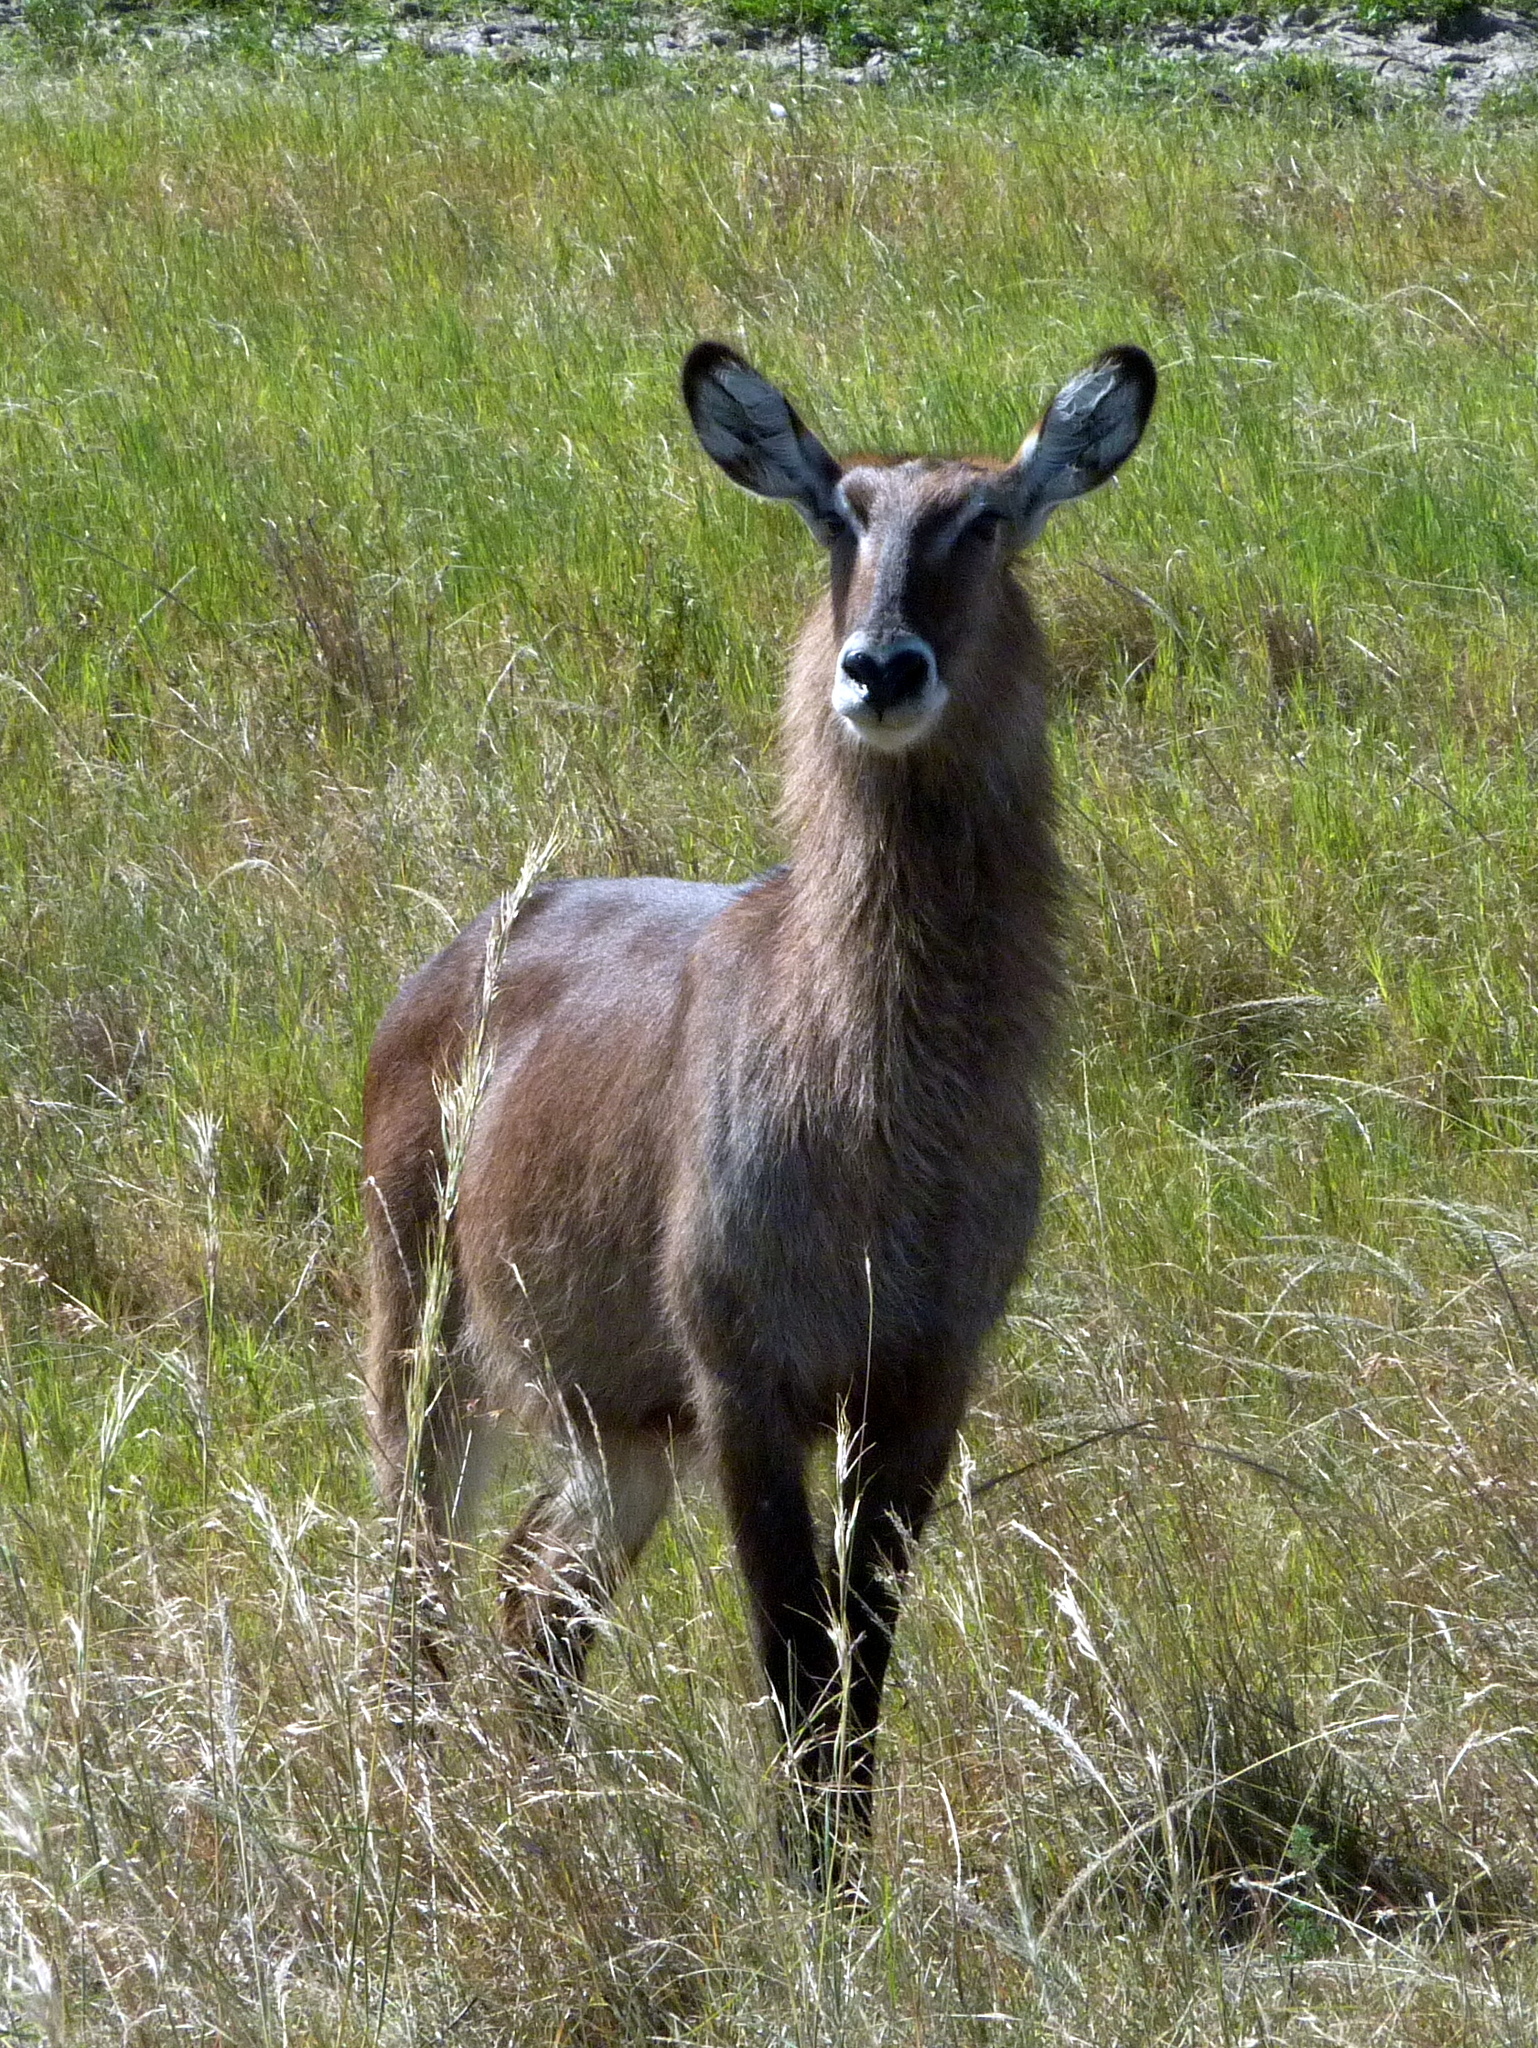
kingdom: Animalia
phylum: Chordata
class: Mammalia
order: Artiodactyla
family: Bovidae
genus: Kobus
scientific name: Kobus ellipsiprymnus
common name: Waterbuck
